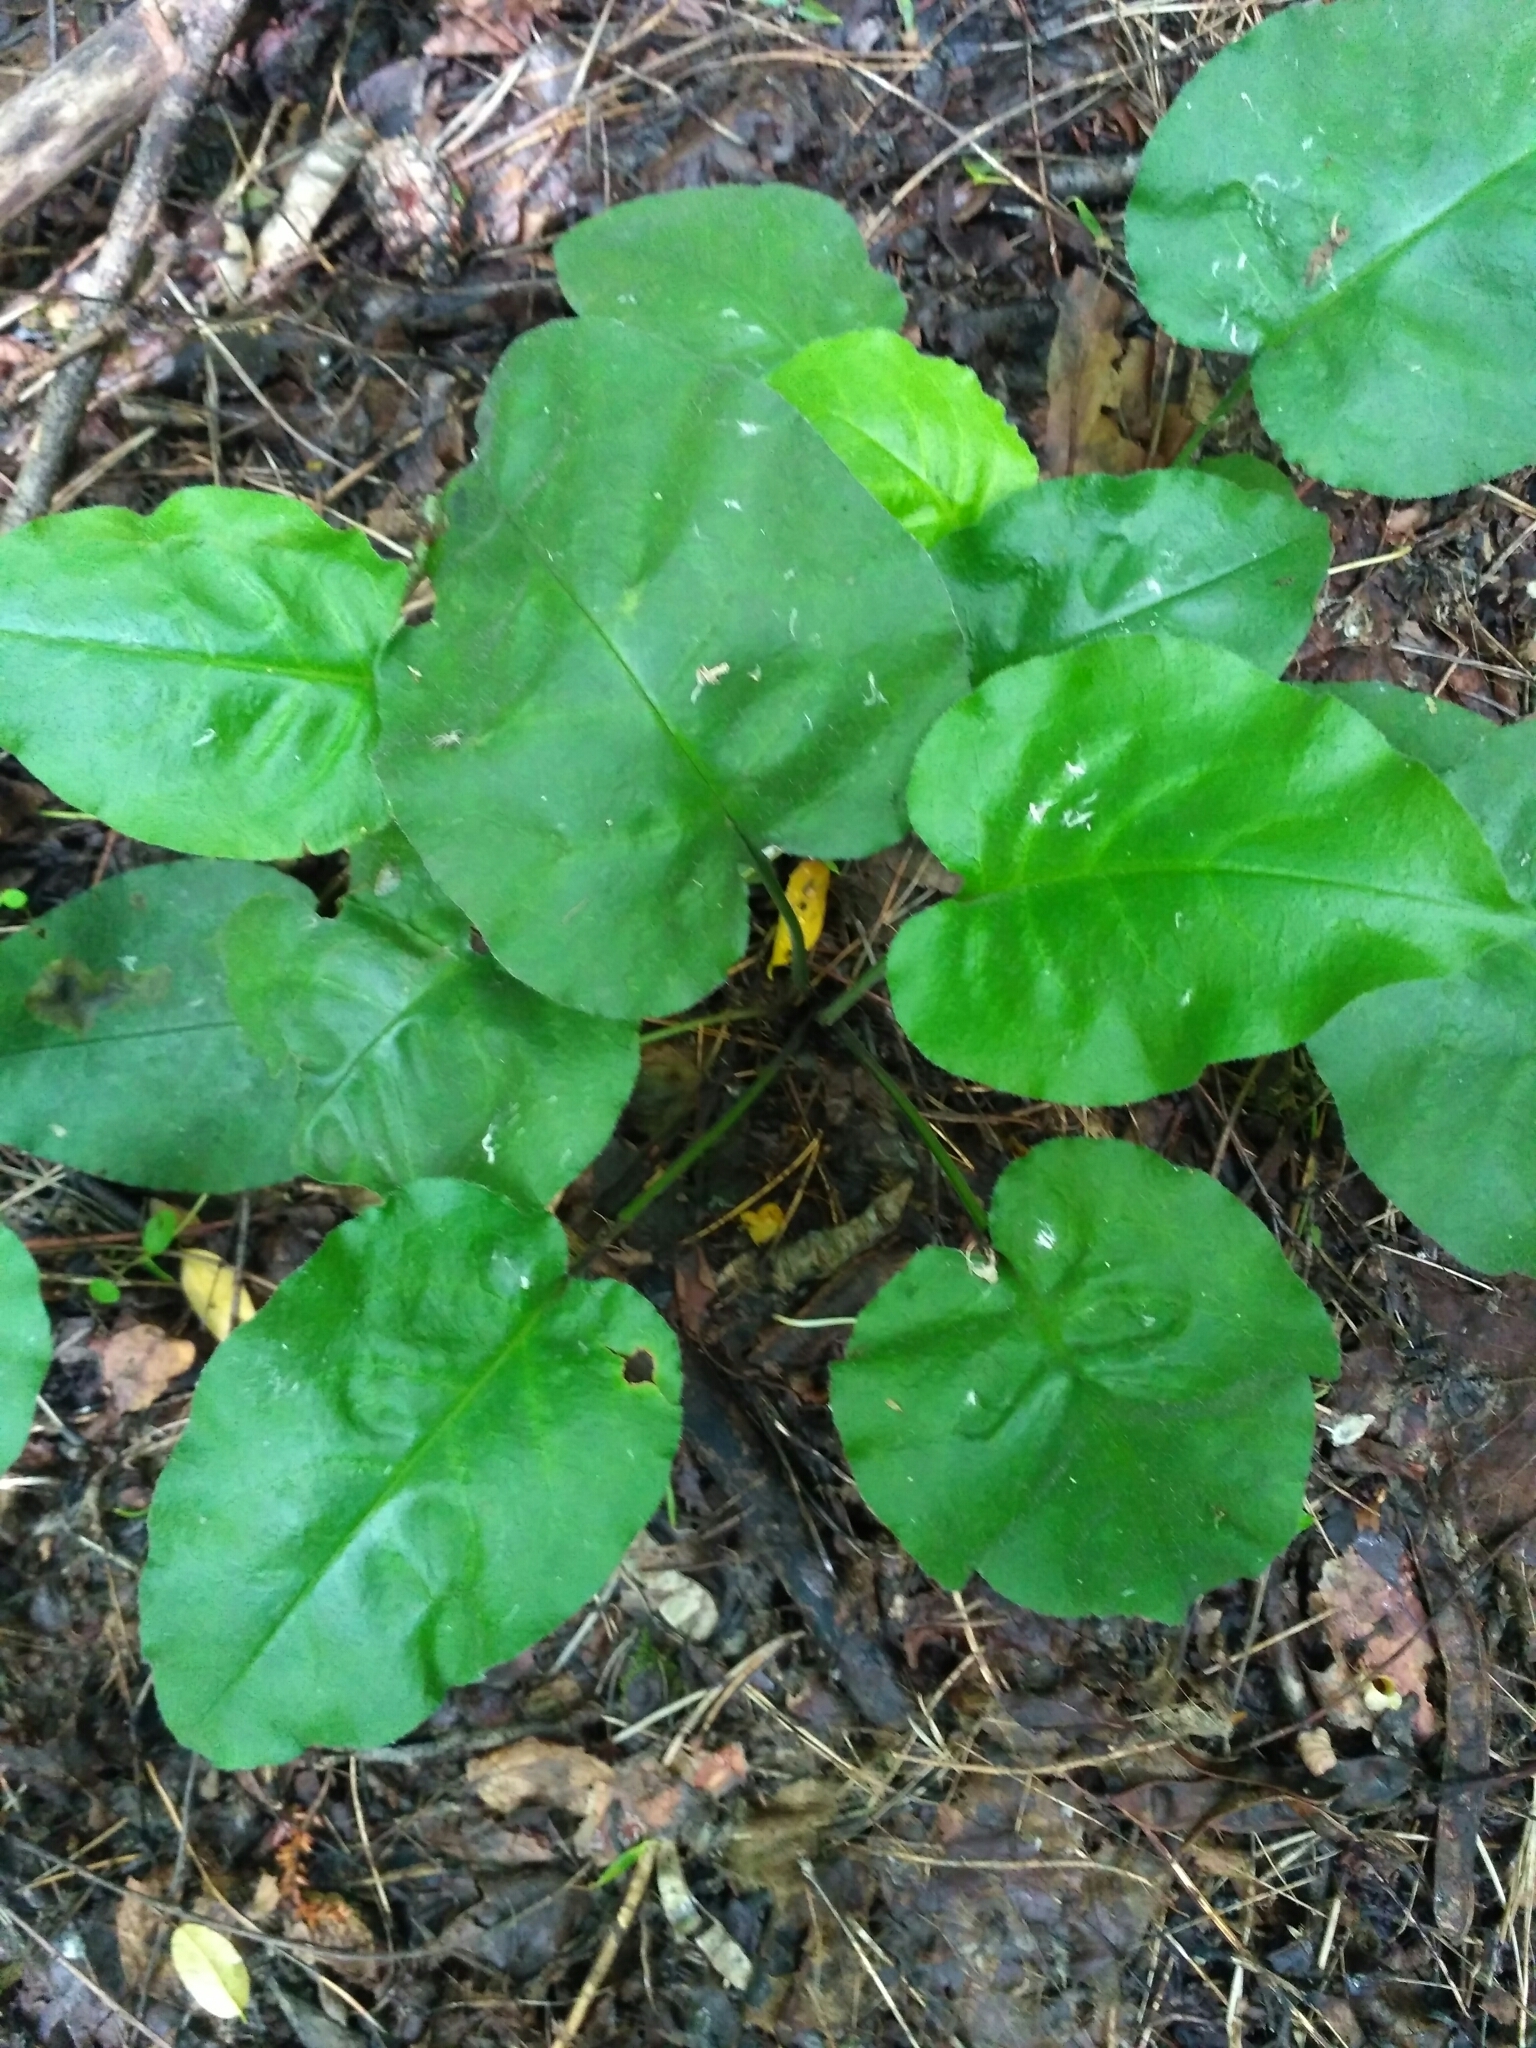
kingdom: Plantae
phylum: Tracheophyta
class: Magnoliopsida
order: Boraginales
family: Boraginaceae
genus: Pulmonaria
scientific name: Pulmonaria obscura
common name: Suffolk lungwort
